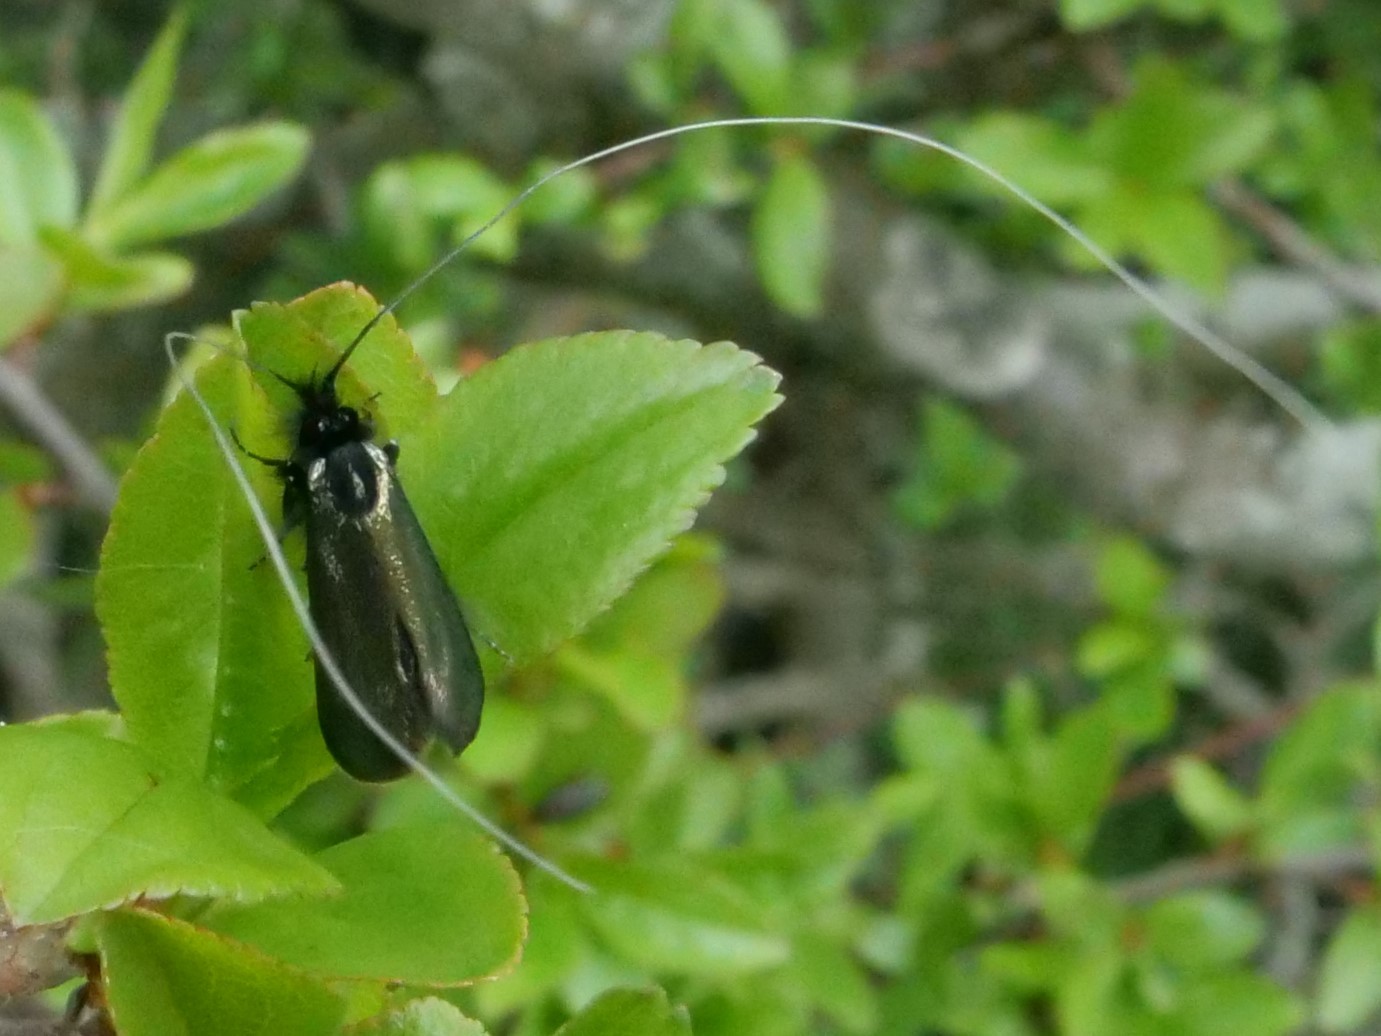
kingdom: Animalia
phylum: Arthropoda
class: Insecta
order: Lepidoptera
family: Adelidae
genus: Adela
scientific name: Adela viridella
